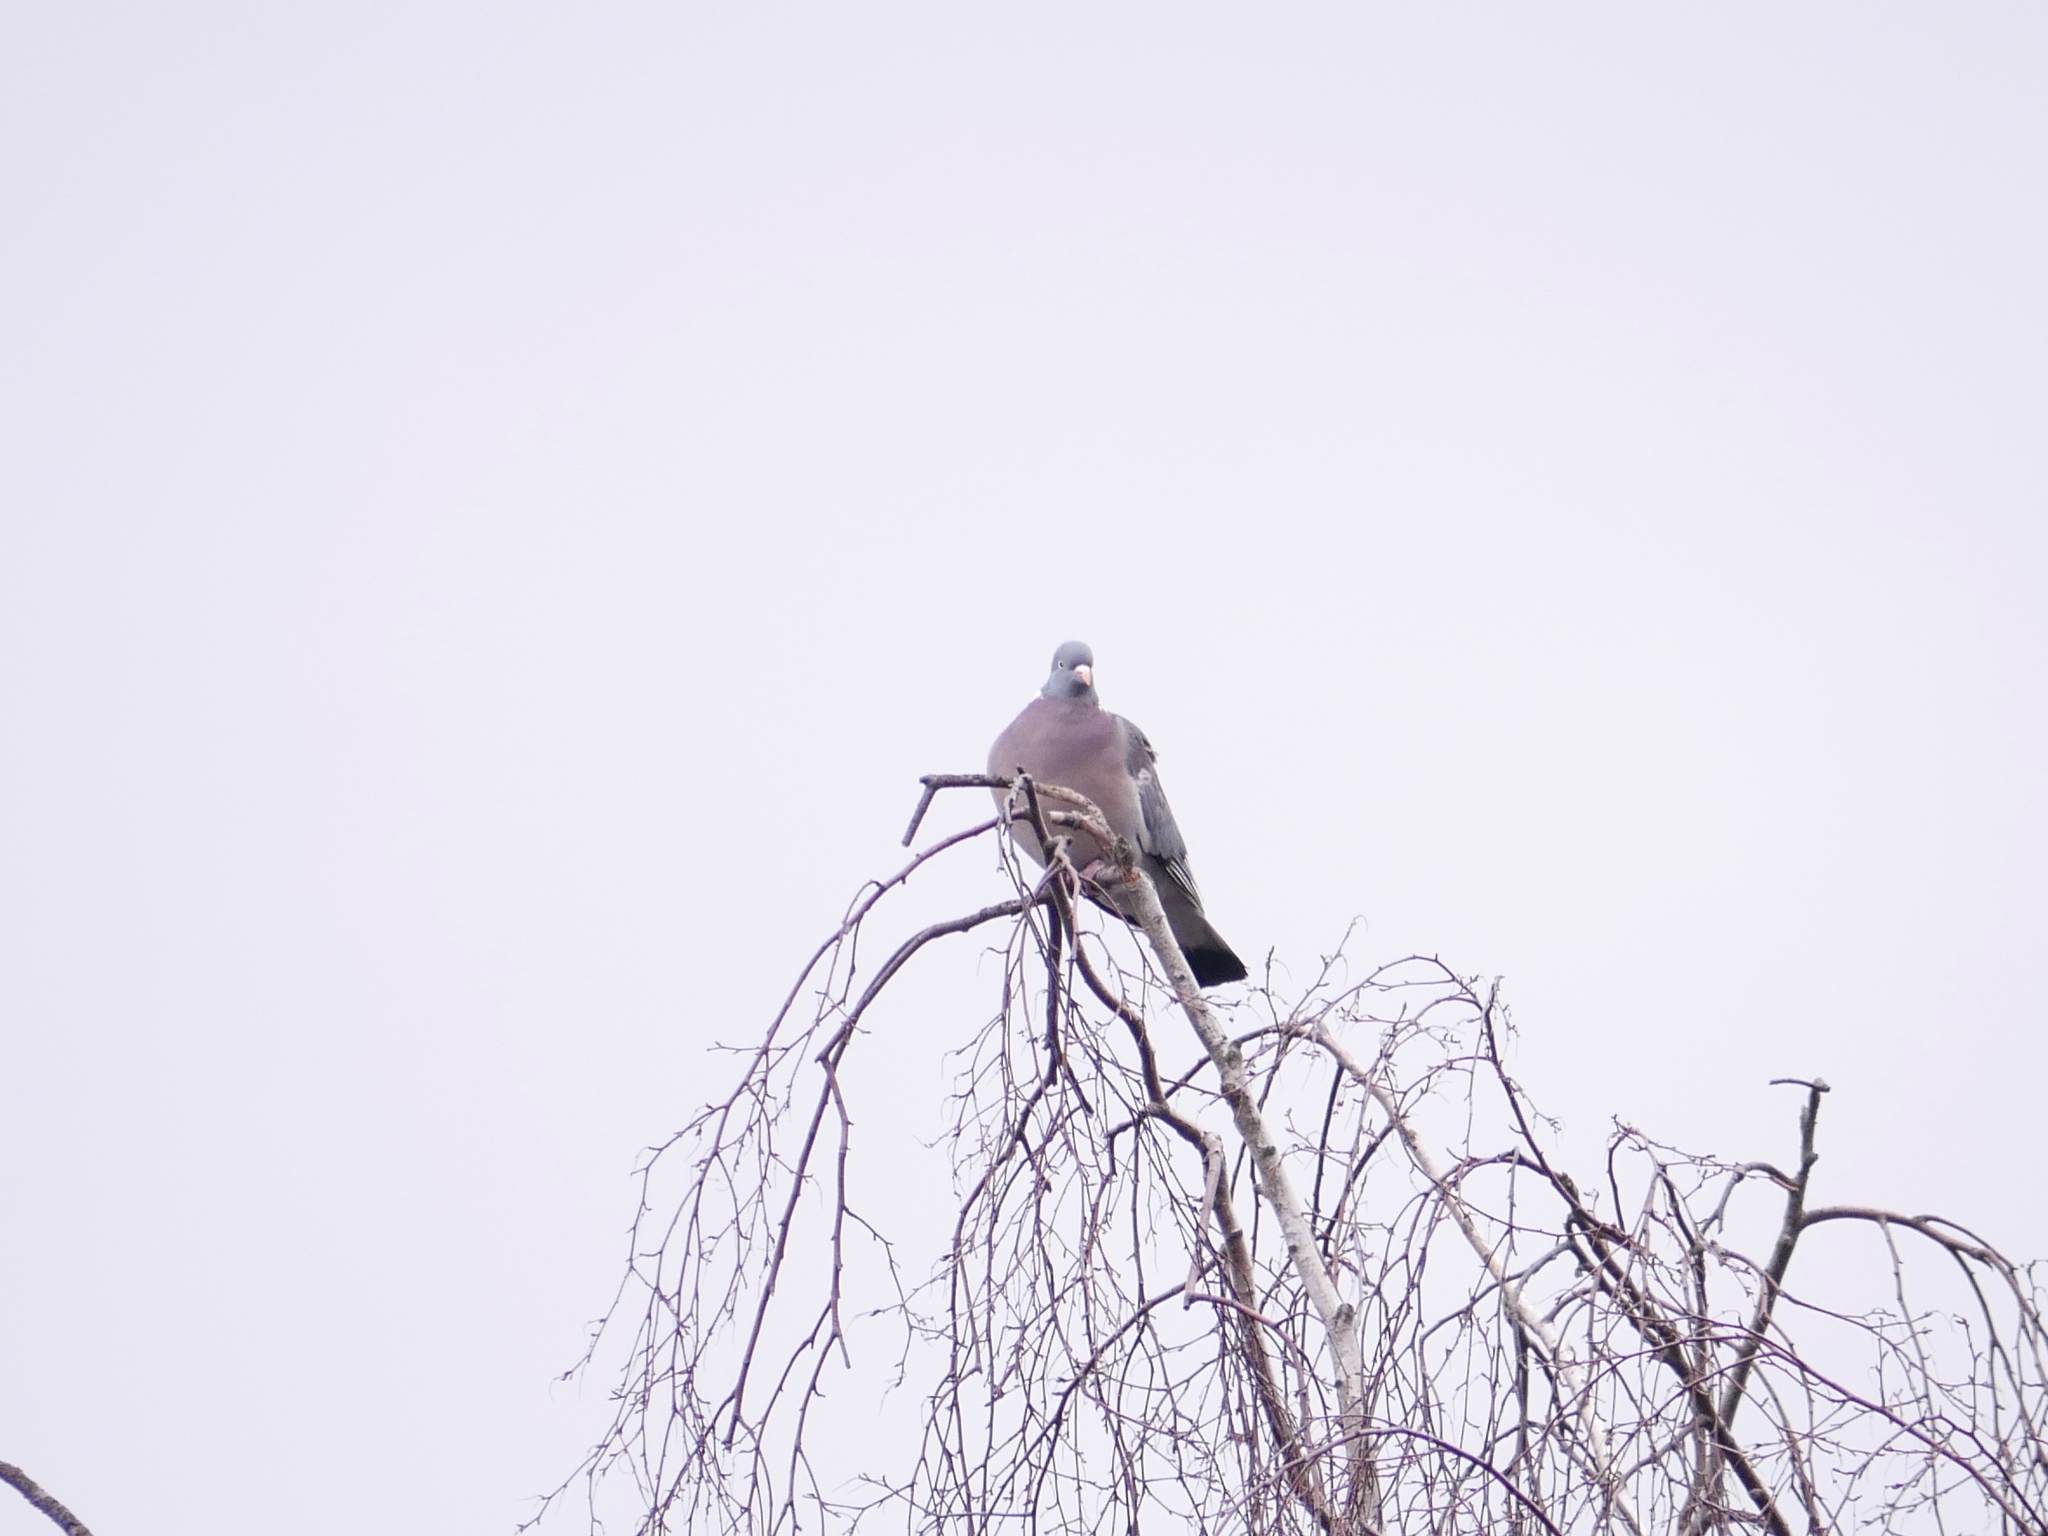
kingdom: Animalia
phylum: Chordata
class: Aves
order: Columbiformes
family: Columbidae
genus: Columba
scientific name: Columba palumbus
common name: Common wood pigeon
